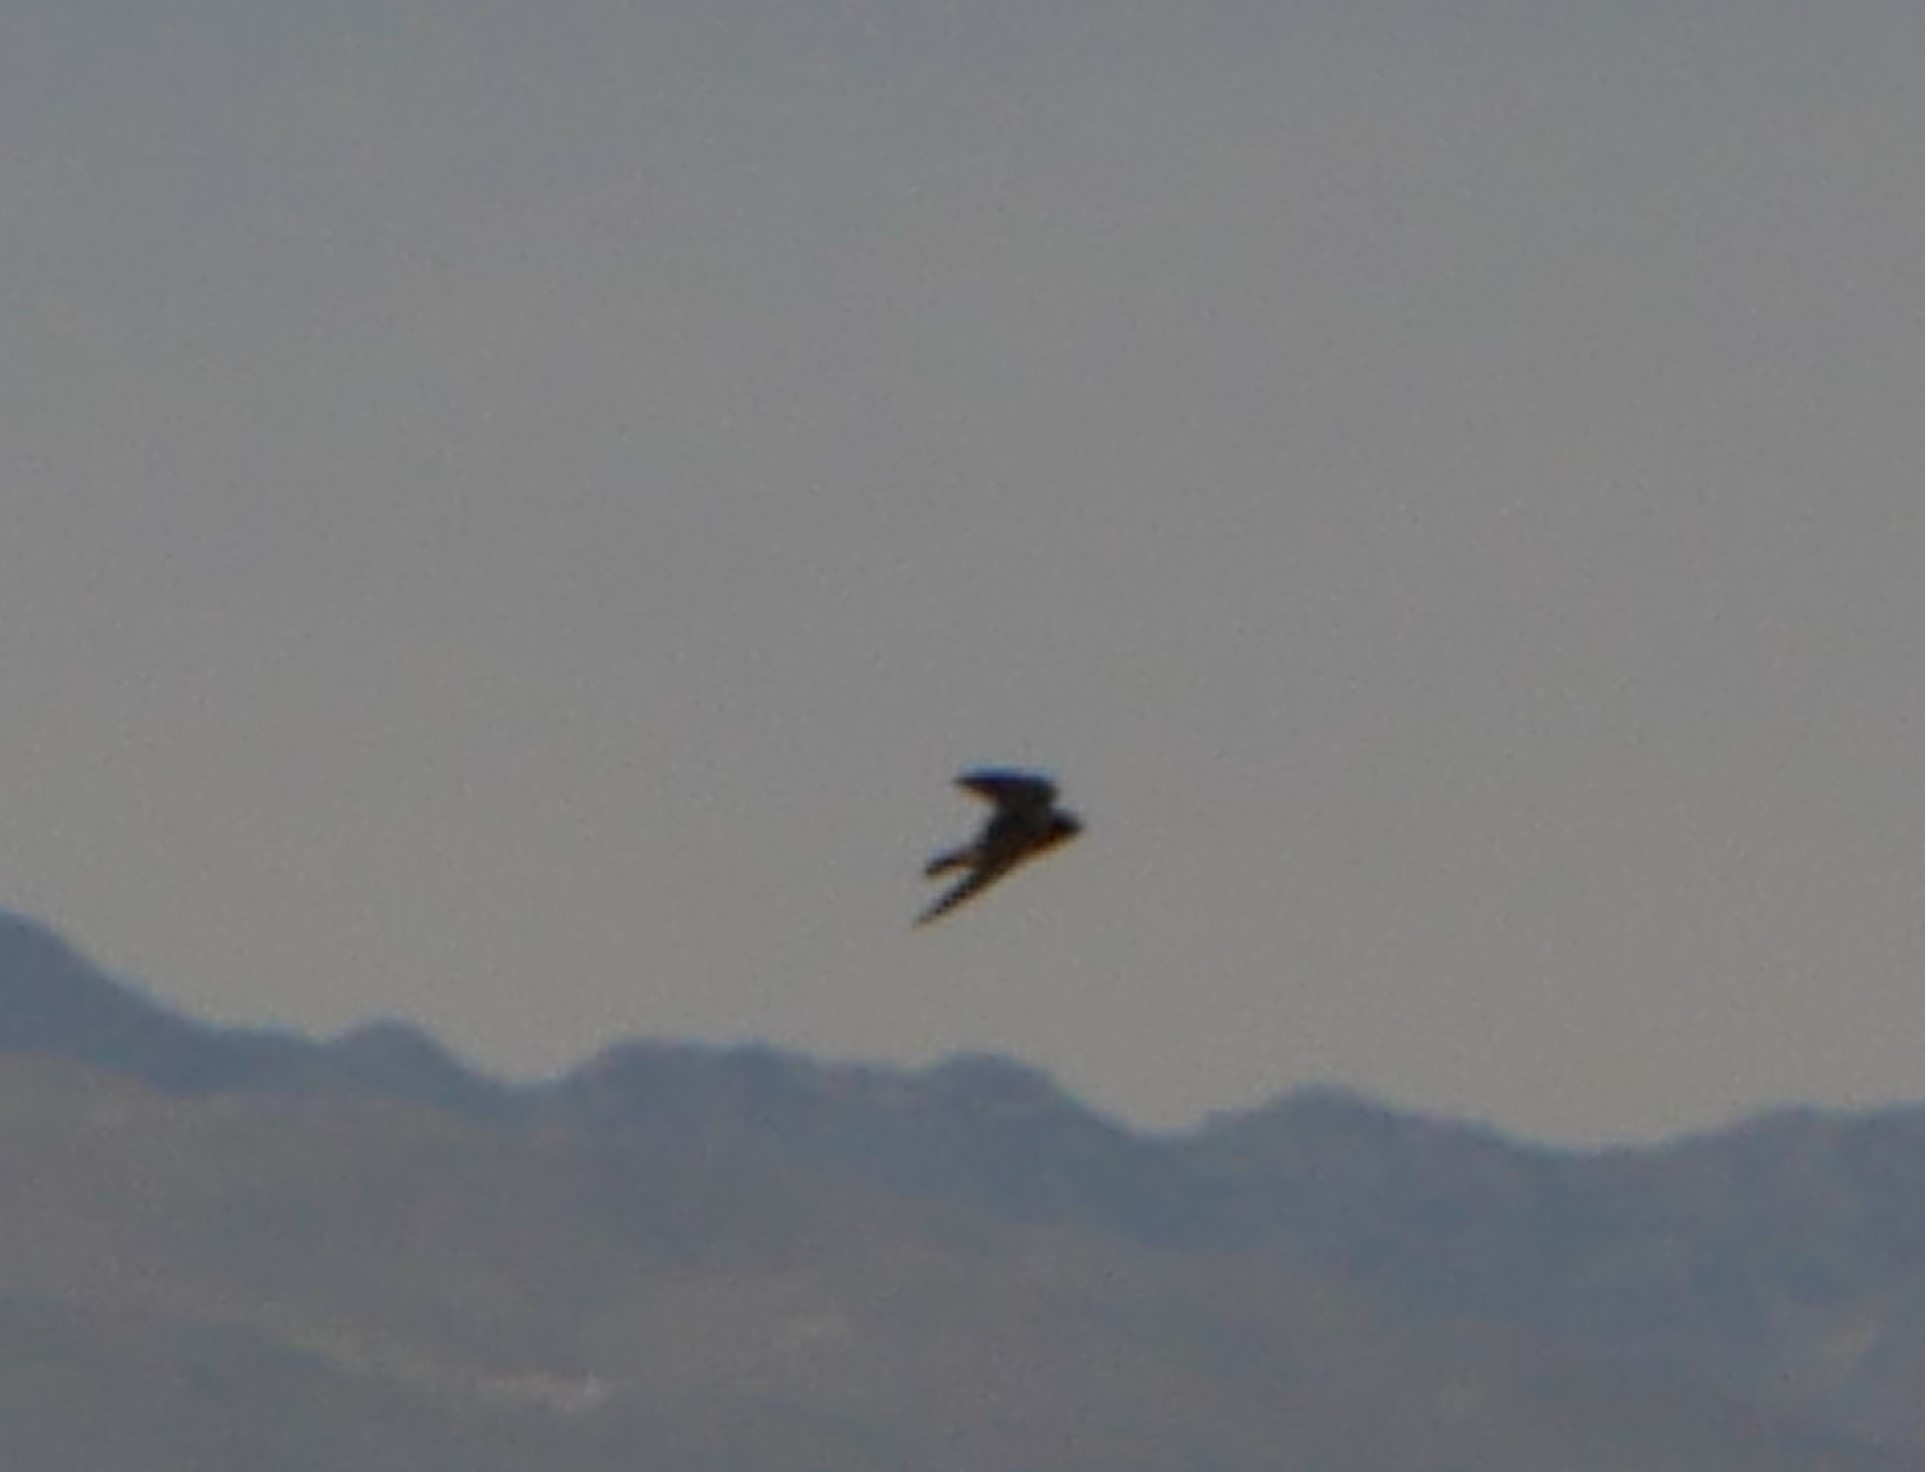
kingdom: Animalia
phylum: Chordata
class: Aves
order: Passeriformes
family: Hirundinidae
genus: Petrochelidon
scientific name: Petrochelidon pyrrhonota
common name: American cliff swallow
